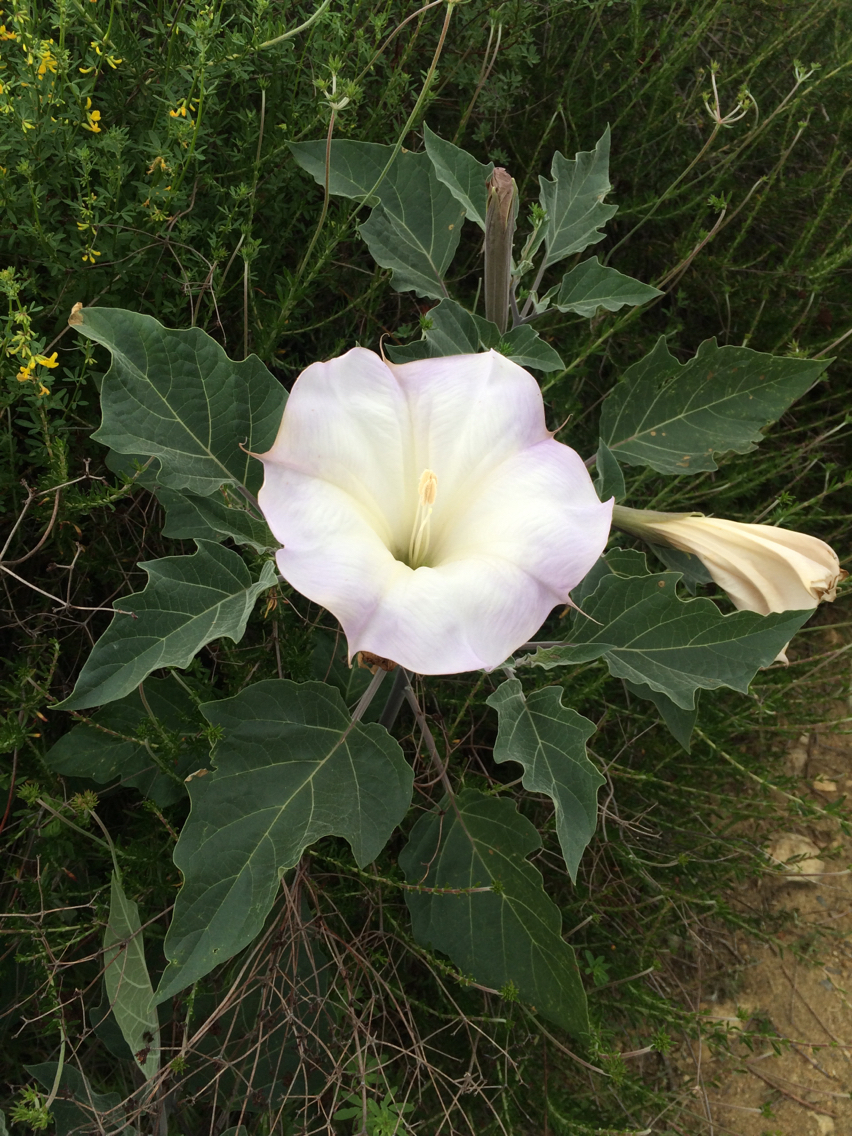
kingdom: Plantae
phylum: Tracheophyta
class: Magnoliopsida
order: Solanales
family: Solanaceae
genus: Datura
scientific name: Datura wrightii
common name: Sacred thorn-apple
